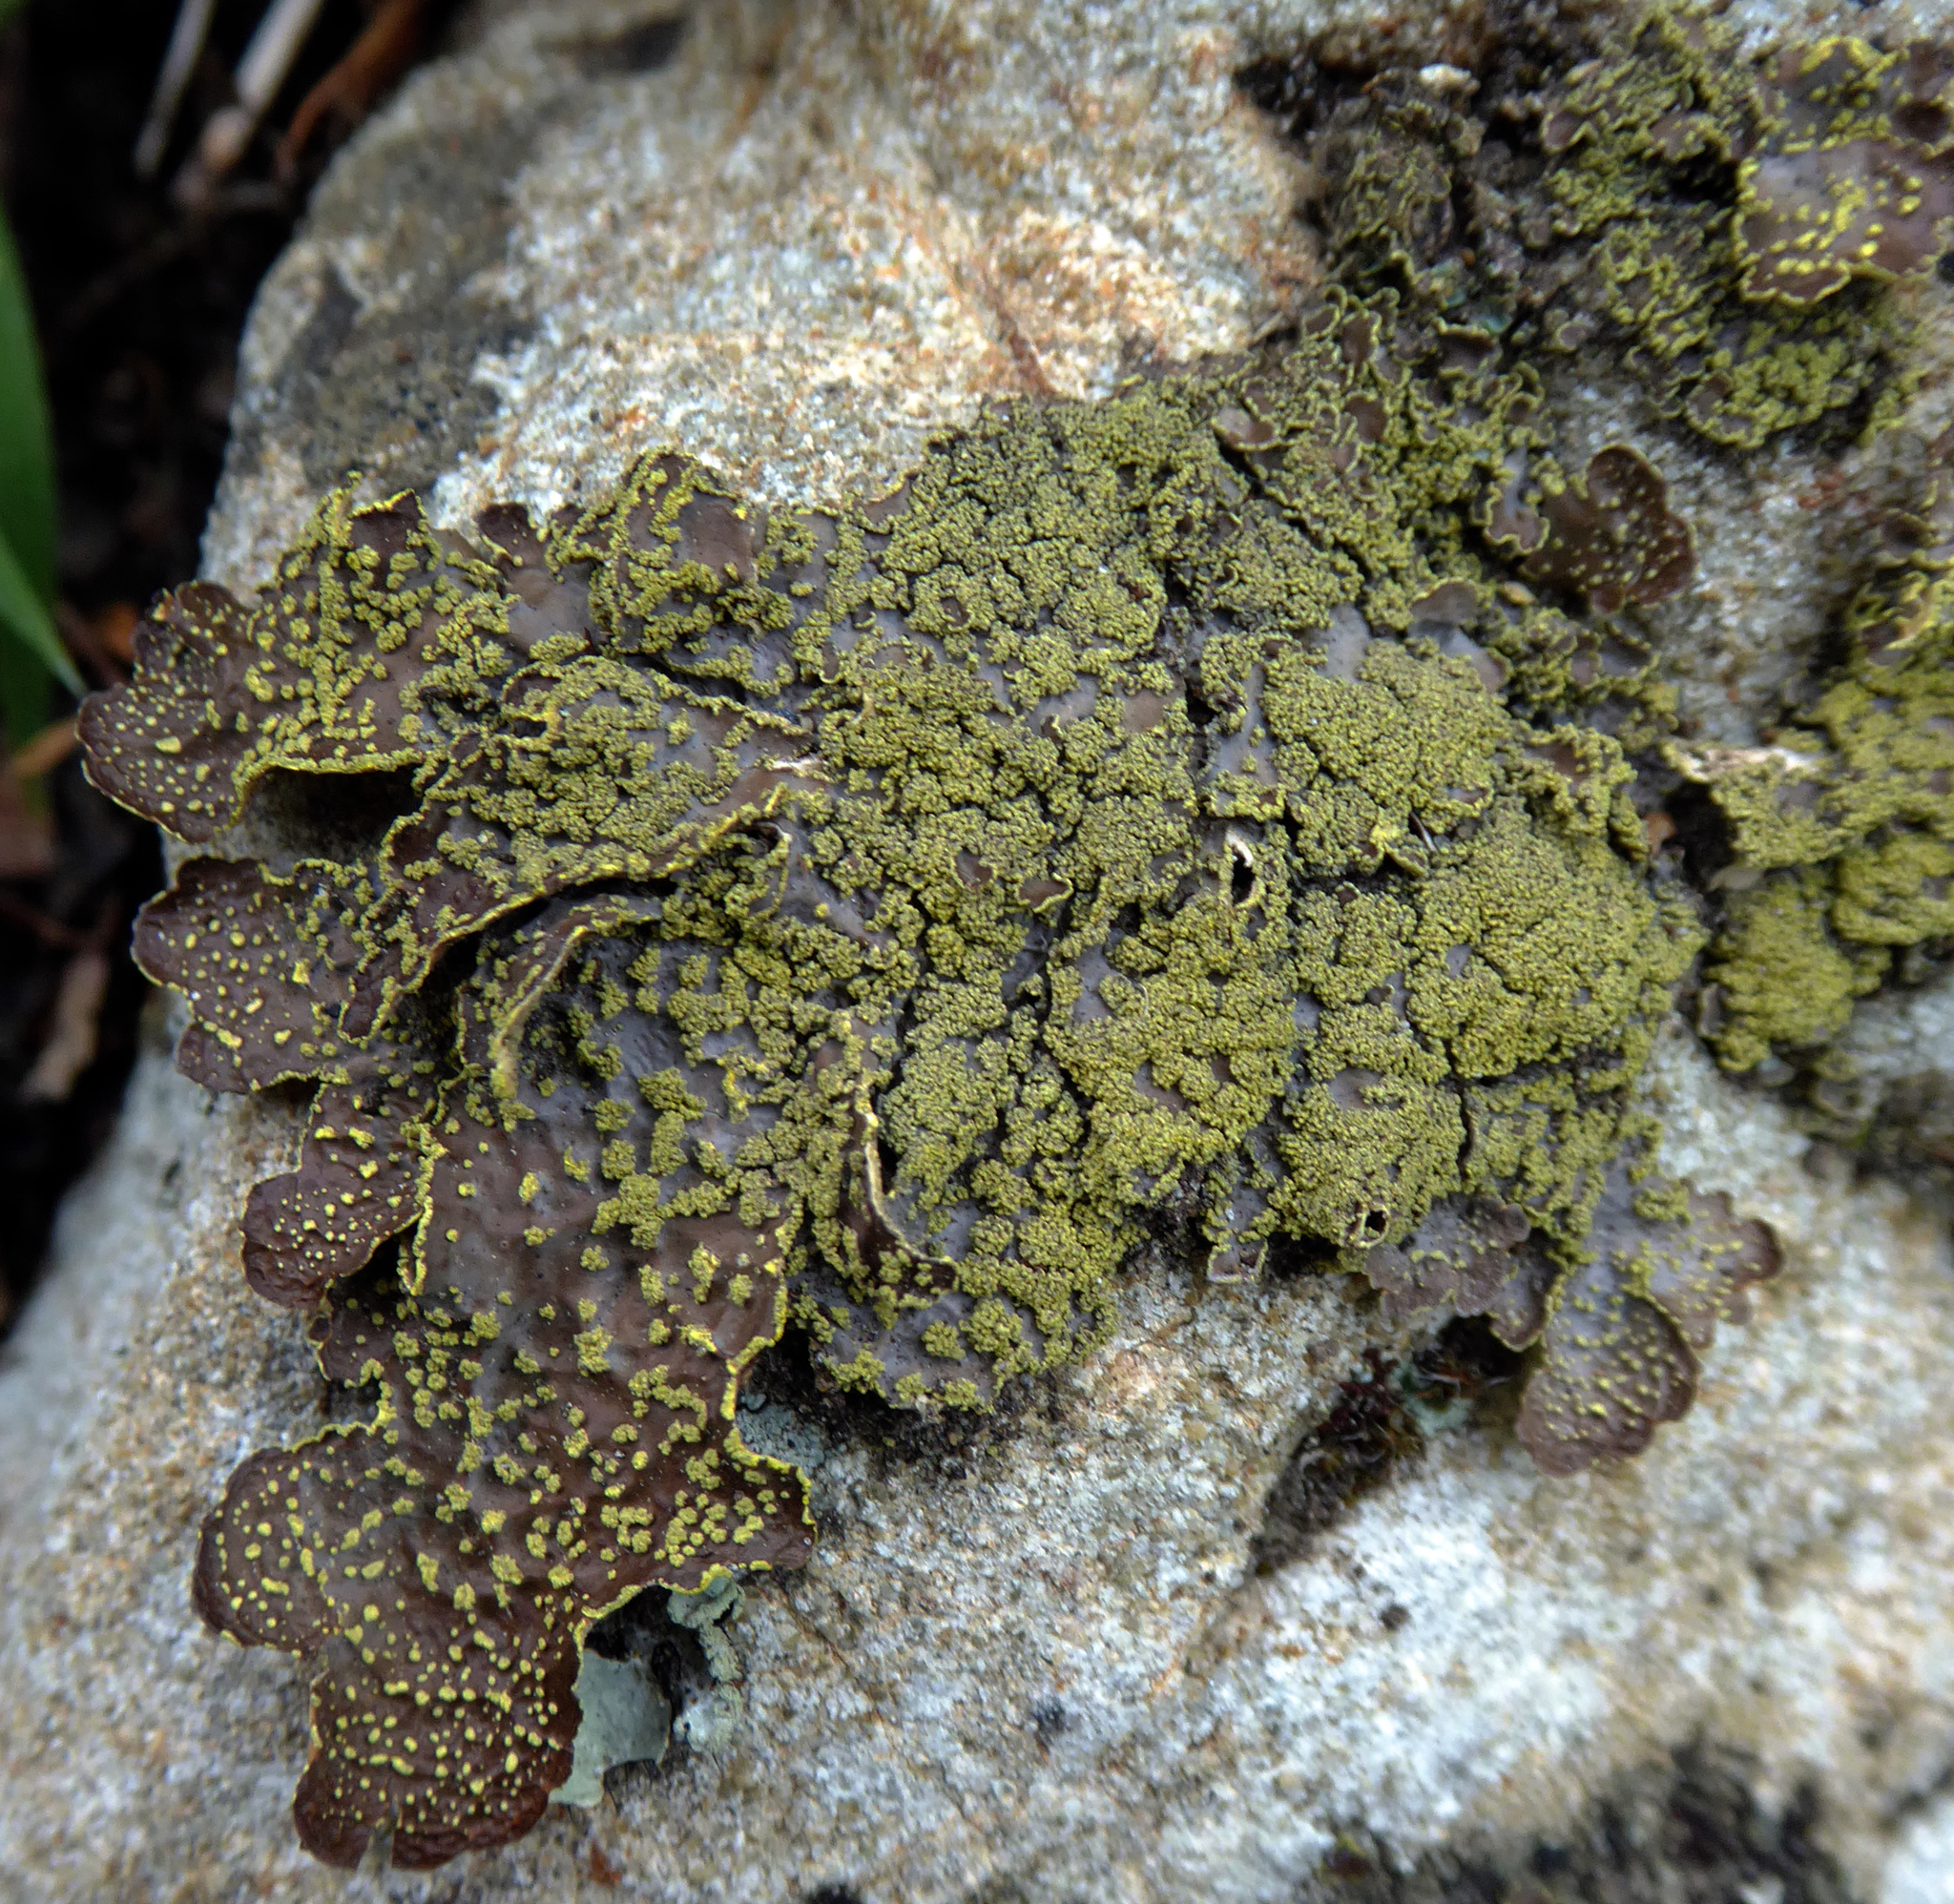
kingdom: Fungi
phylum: Ascomycota
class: Lecanoromycetes
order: Peltigerales
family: Lobariaceae
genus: Pseudocyphellaria
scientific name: Pseudocyphellaria crocata
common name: Golden specklebelly
